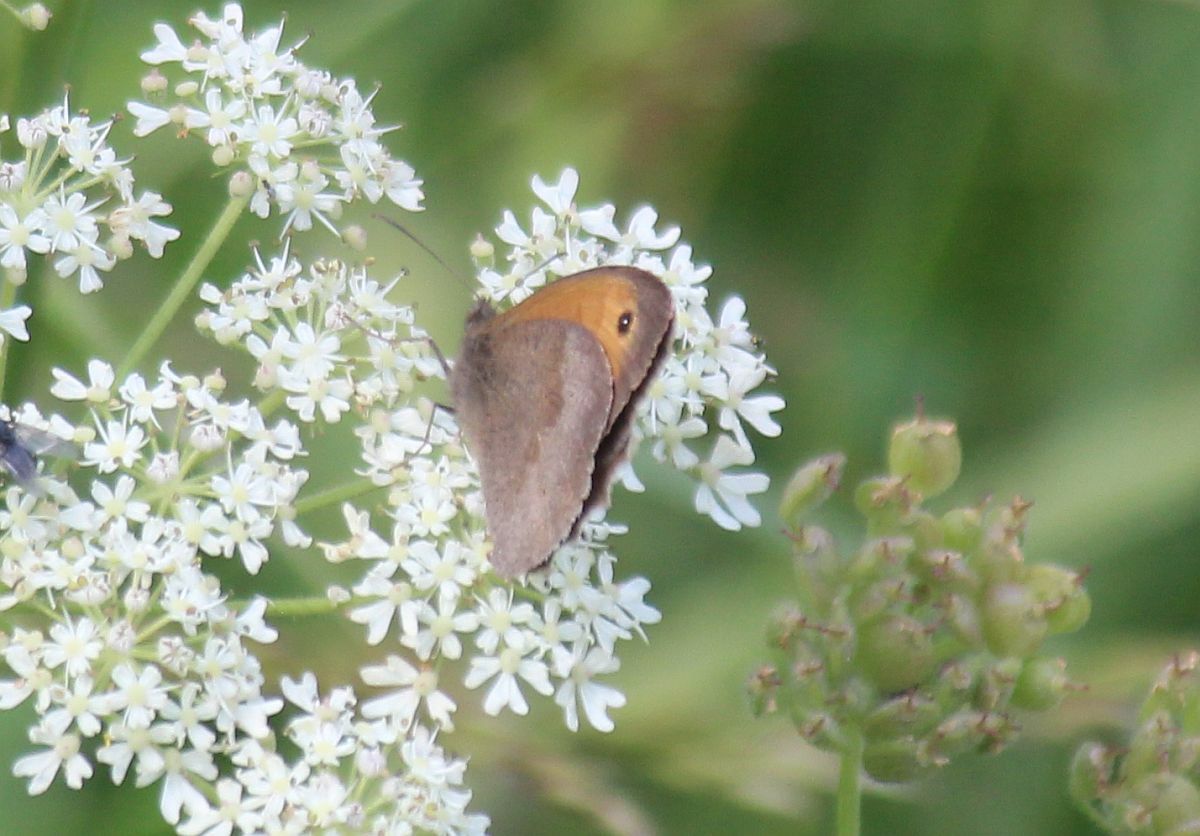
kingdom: Animalia
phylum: Arthropoda
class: Insecta
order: Lepidoptera
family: Nymphalidae
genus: Maniola
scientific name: Maniola jurtina
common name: Meadow brown
